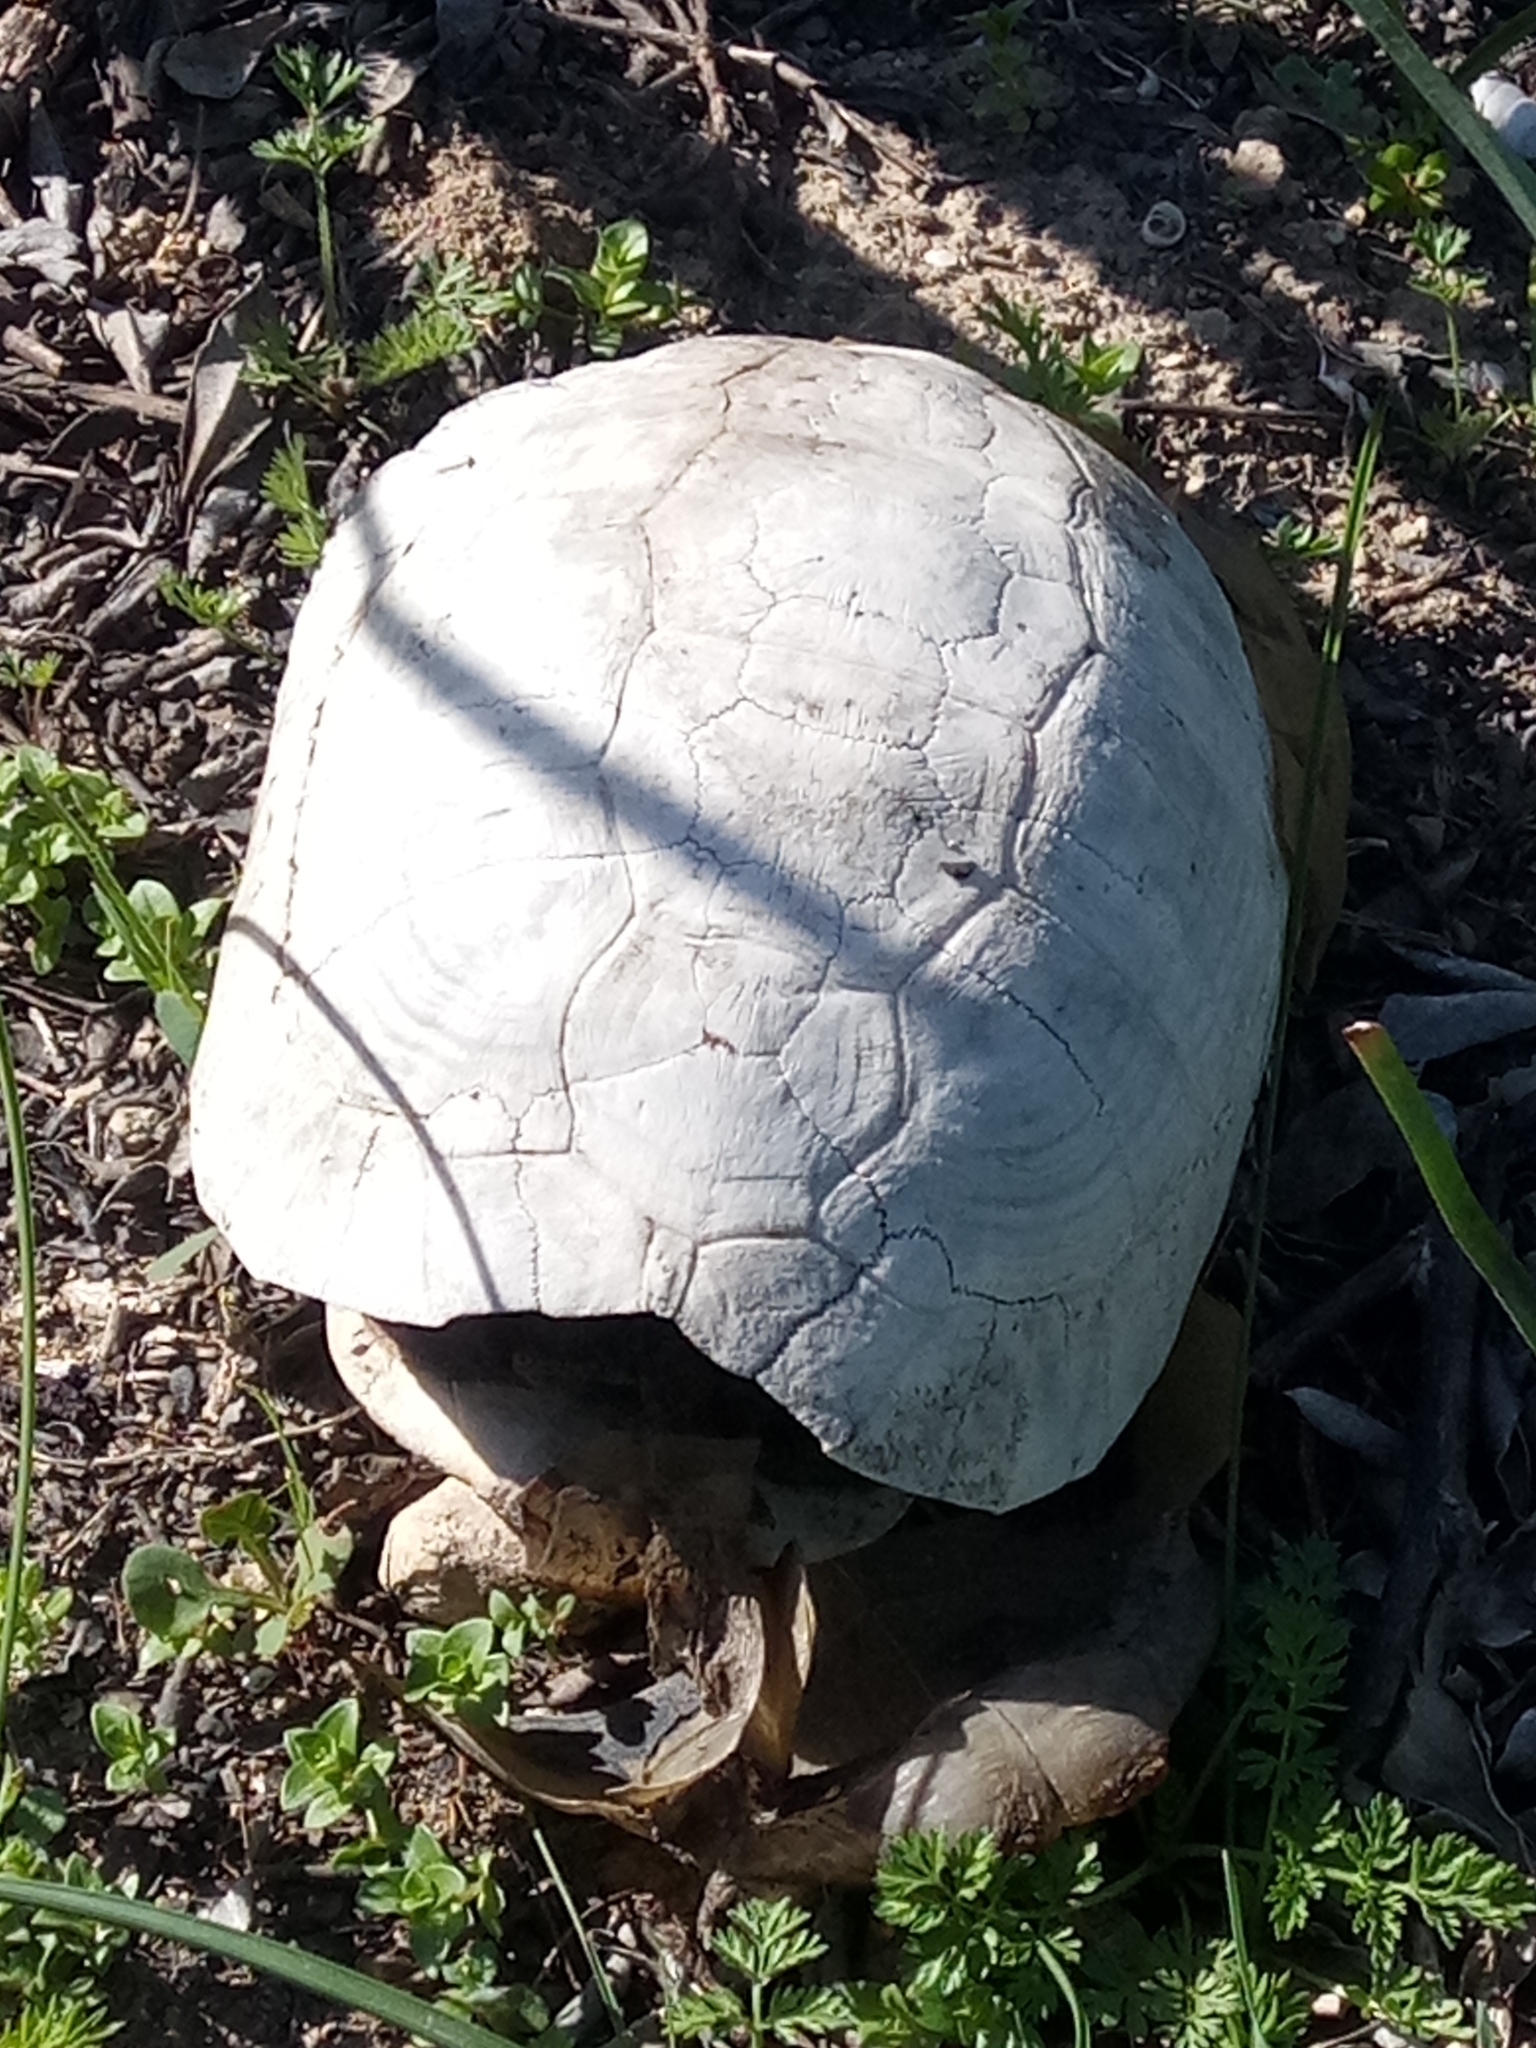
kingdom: Animalia
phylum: Chordata
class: Testudines
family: Testudinidae
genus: Testudo
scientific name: Testudo graeca
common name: Common tortoise
